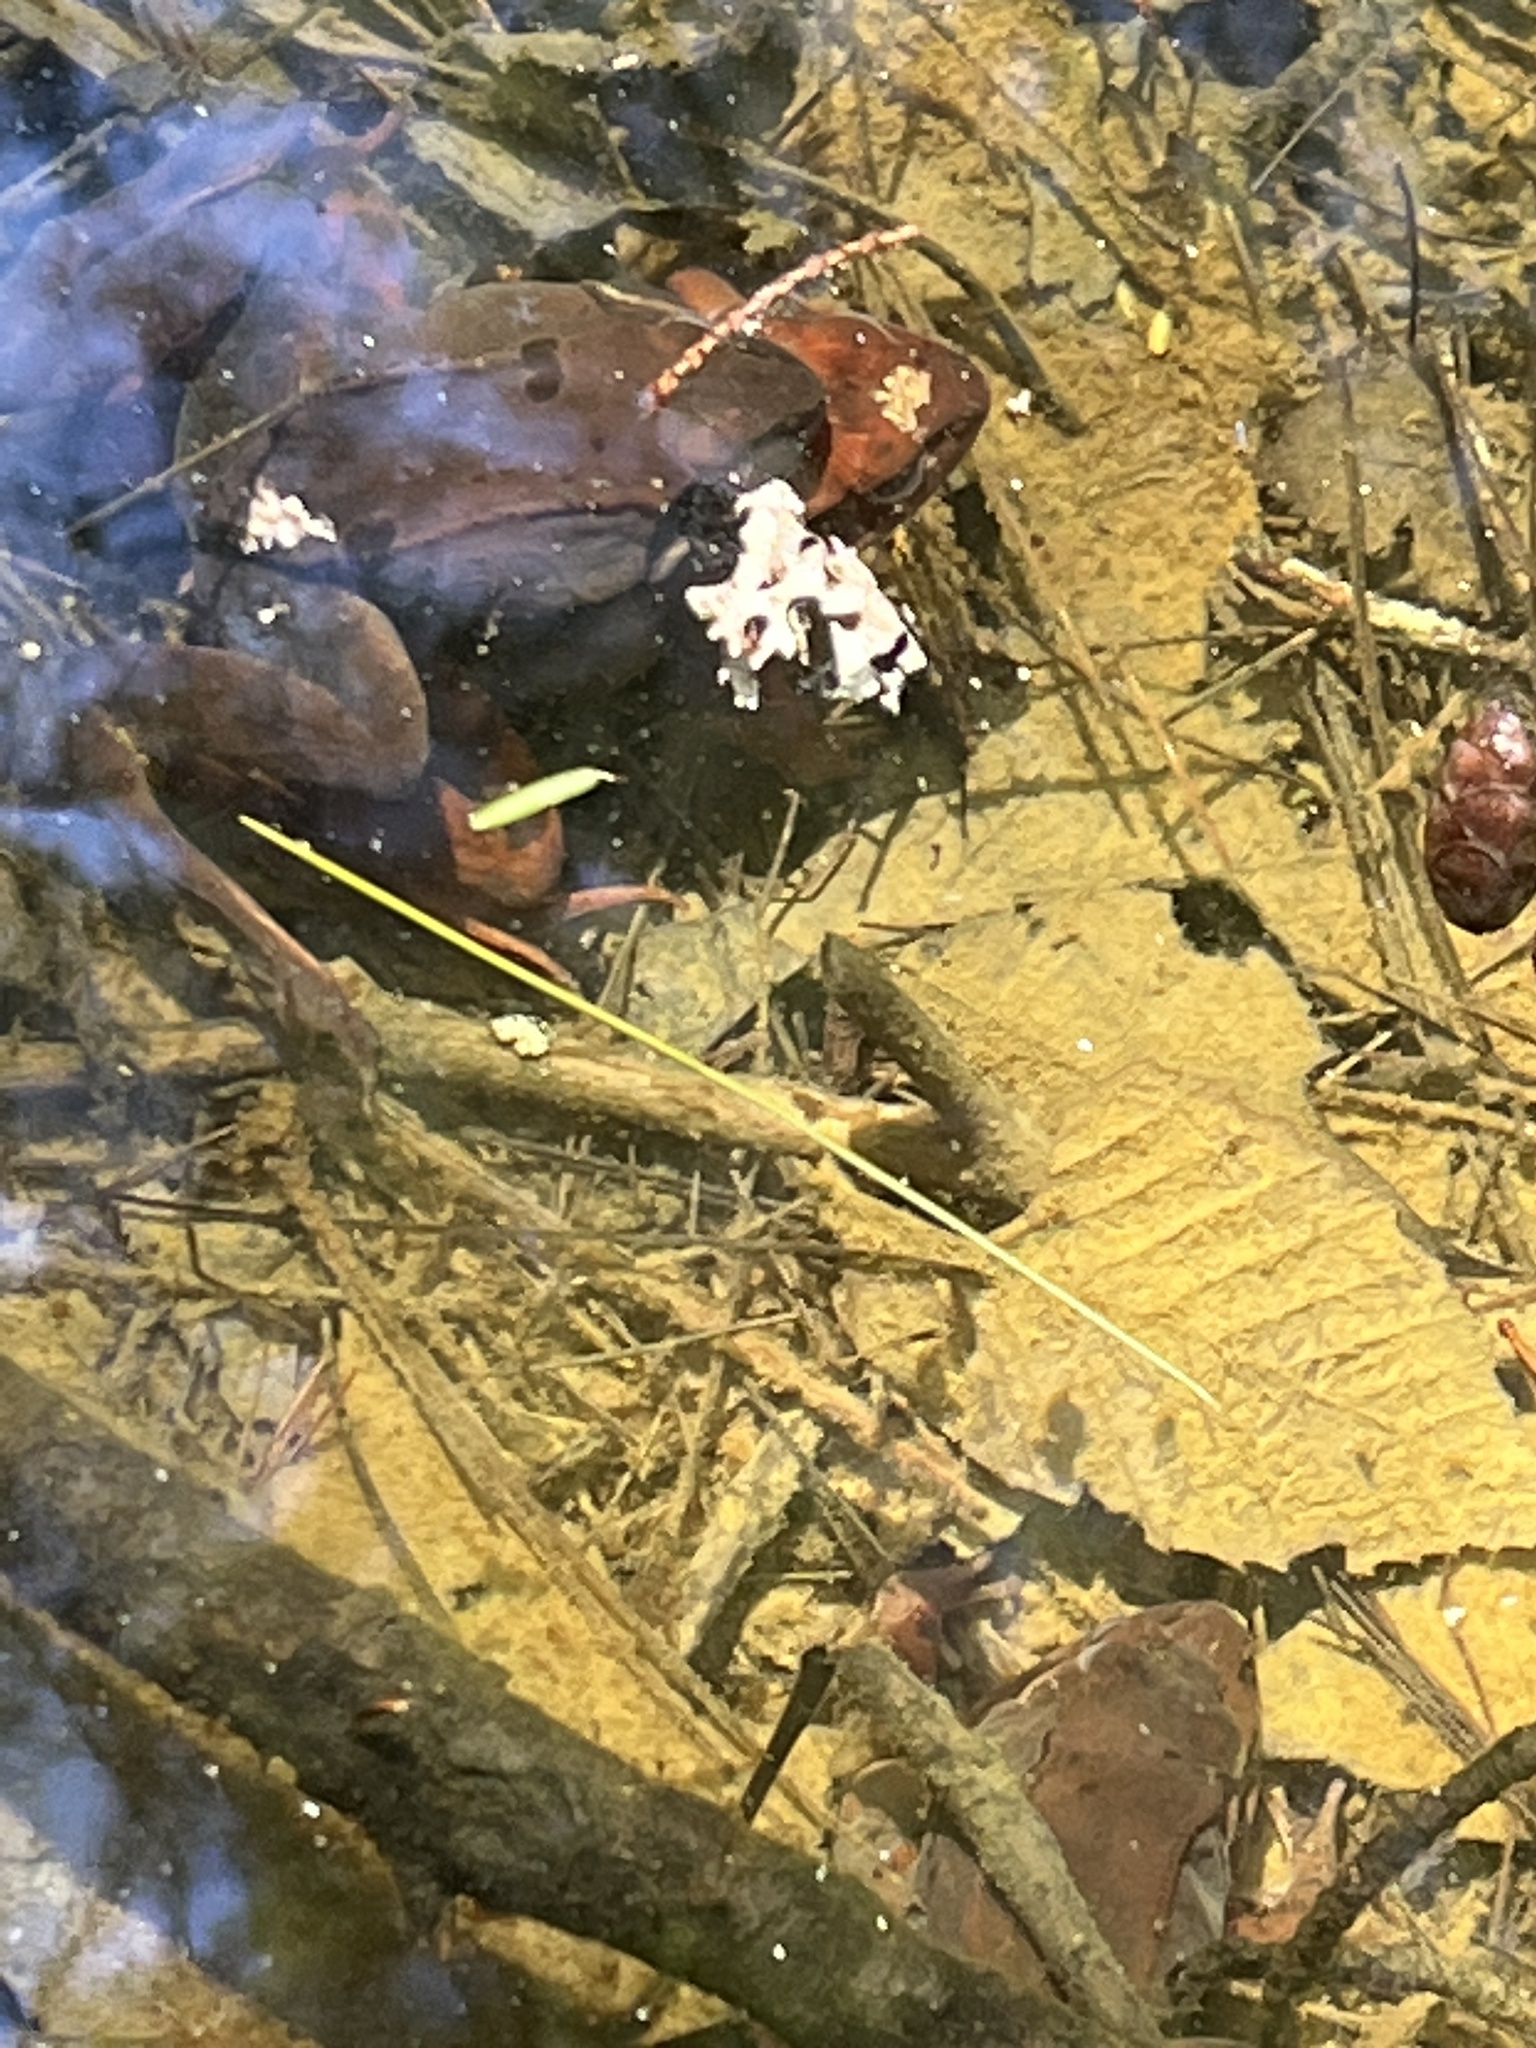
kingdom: Animalia
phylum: Chordata
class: Amphibia
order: Anura
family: Ranidae
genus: Lithobates
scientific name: Lithobates sylvaticus
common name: Wood frog
